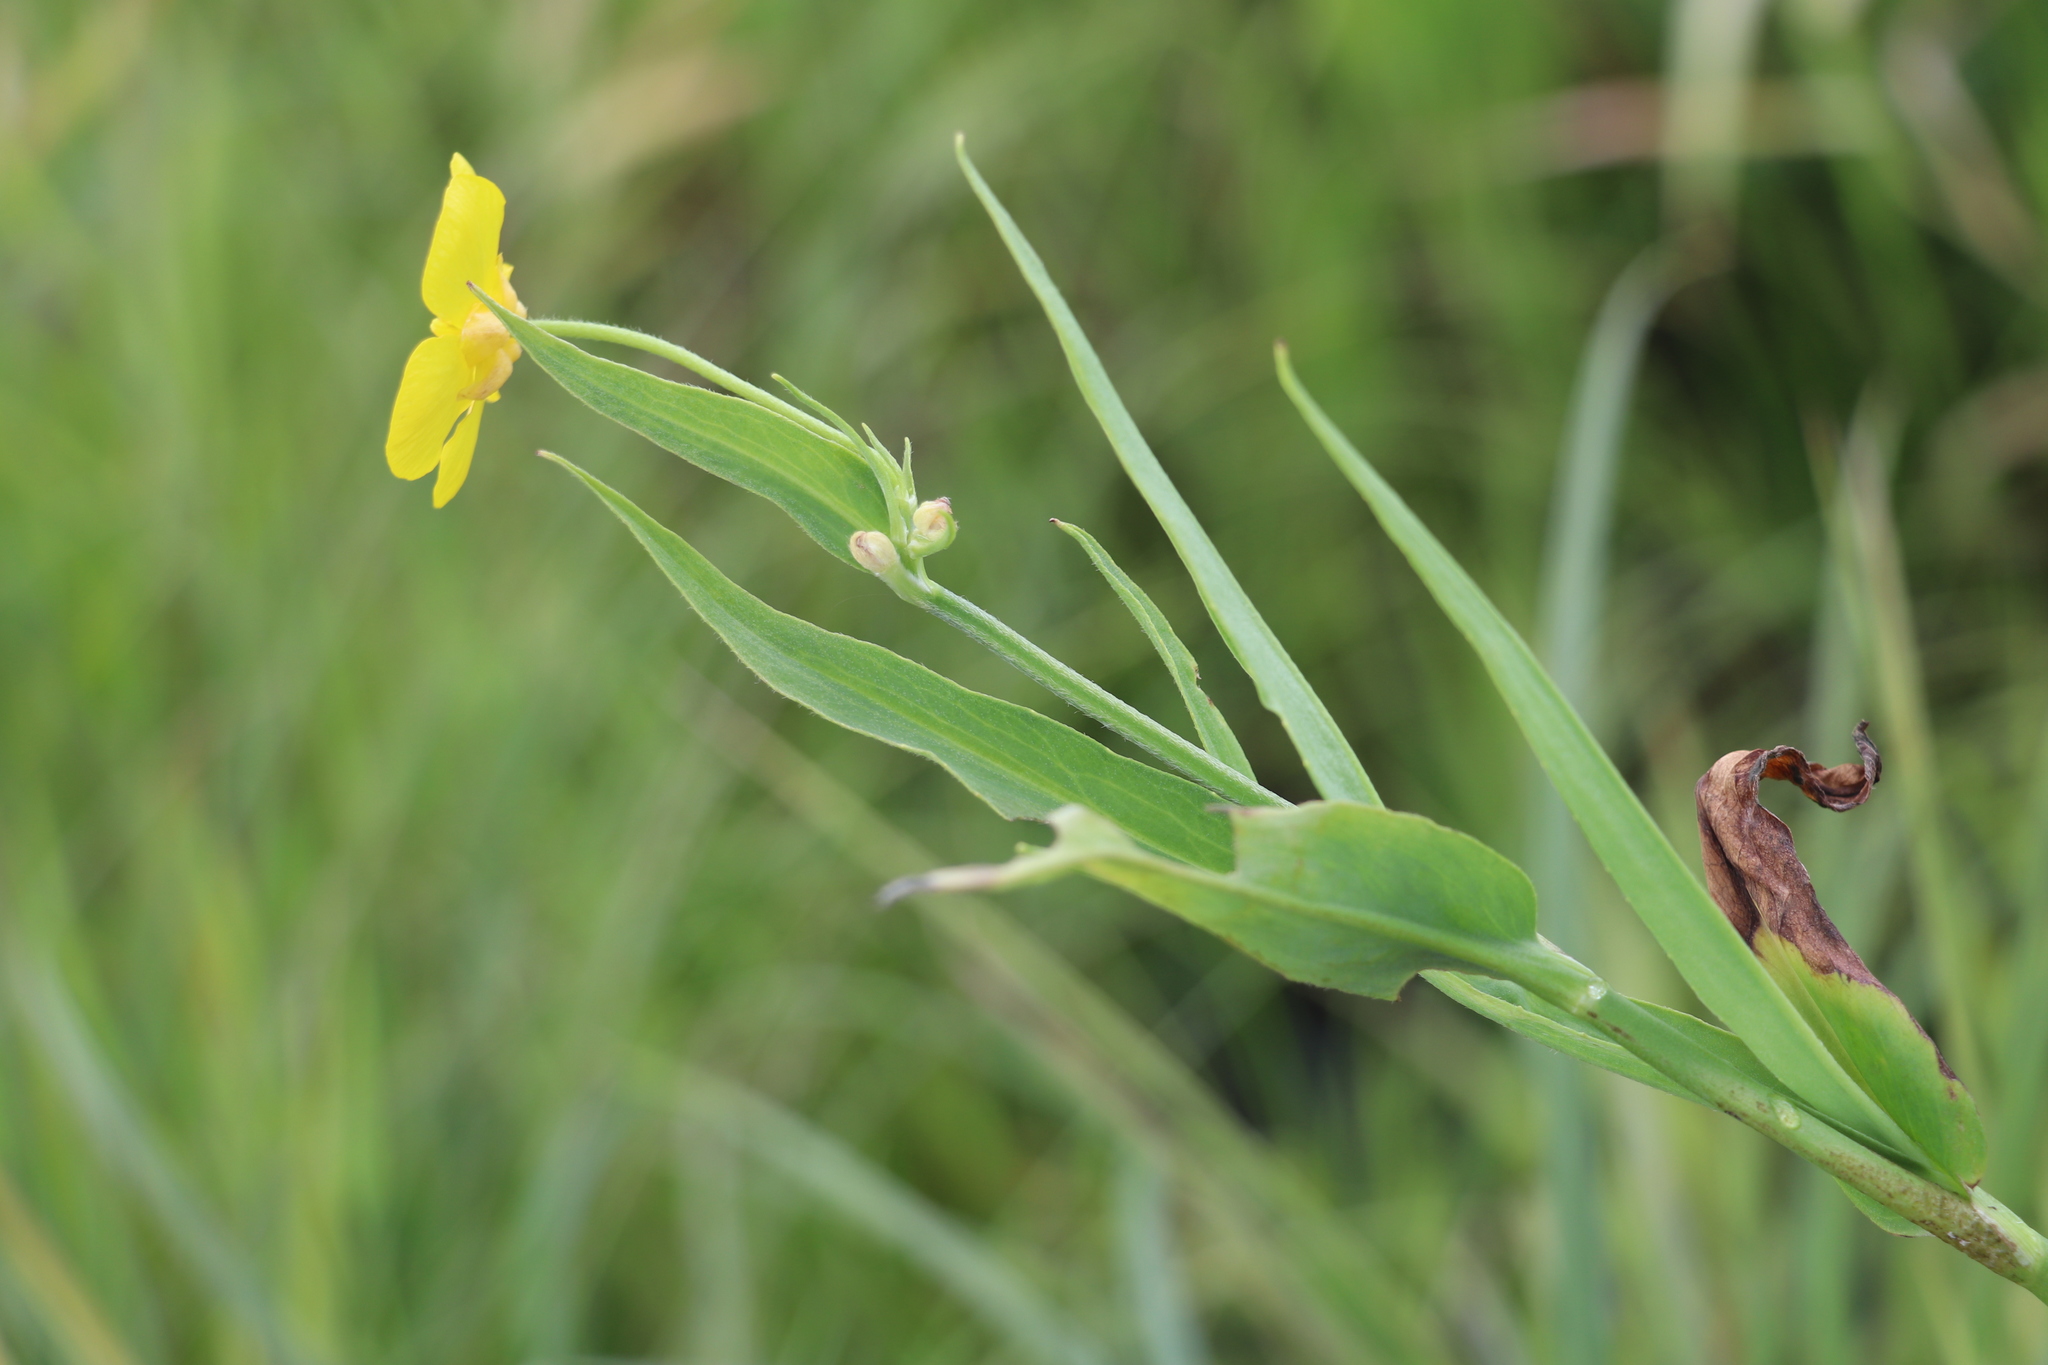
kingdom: Plantae
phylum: Tracheophyta
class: Magnoliopsida
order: Ranunculales
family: Ranunculaceae
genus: Ranunculus
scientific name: Ranunculus lingua
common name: Greater spearwort
